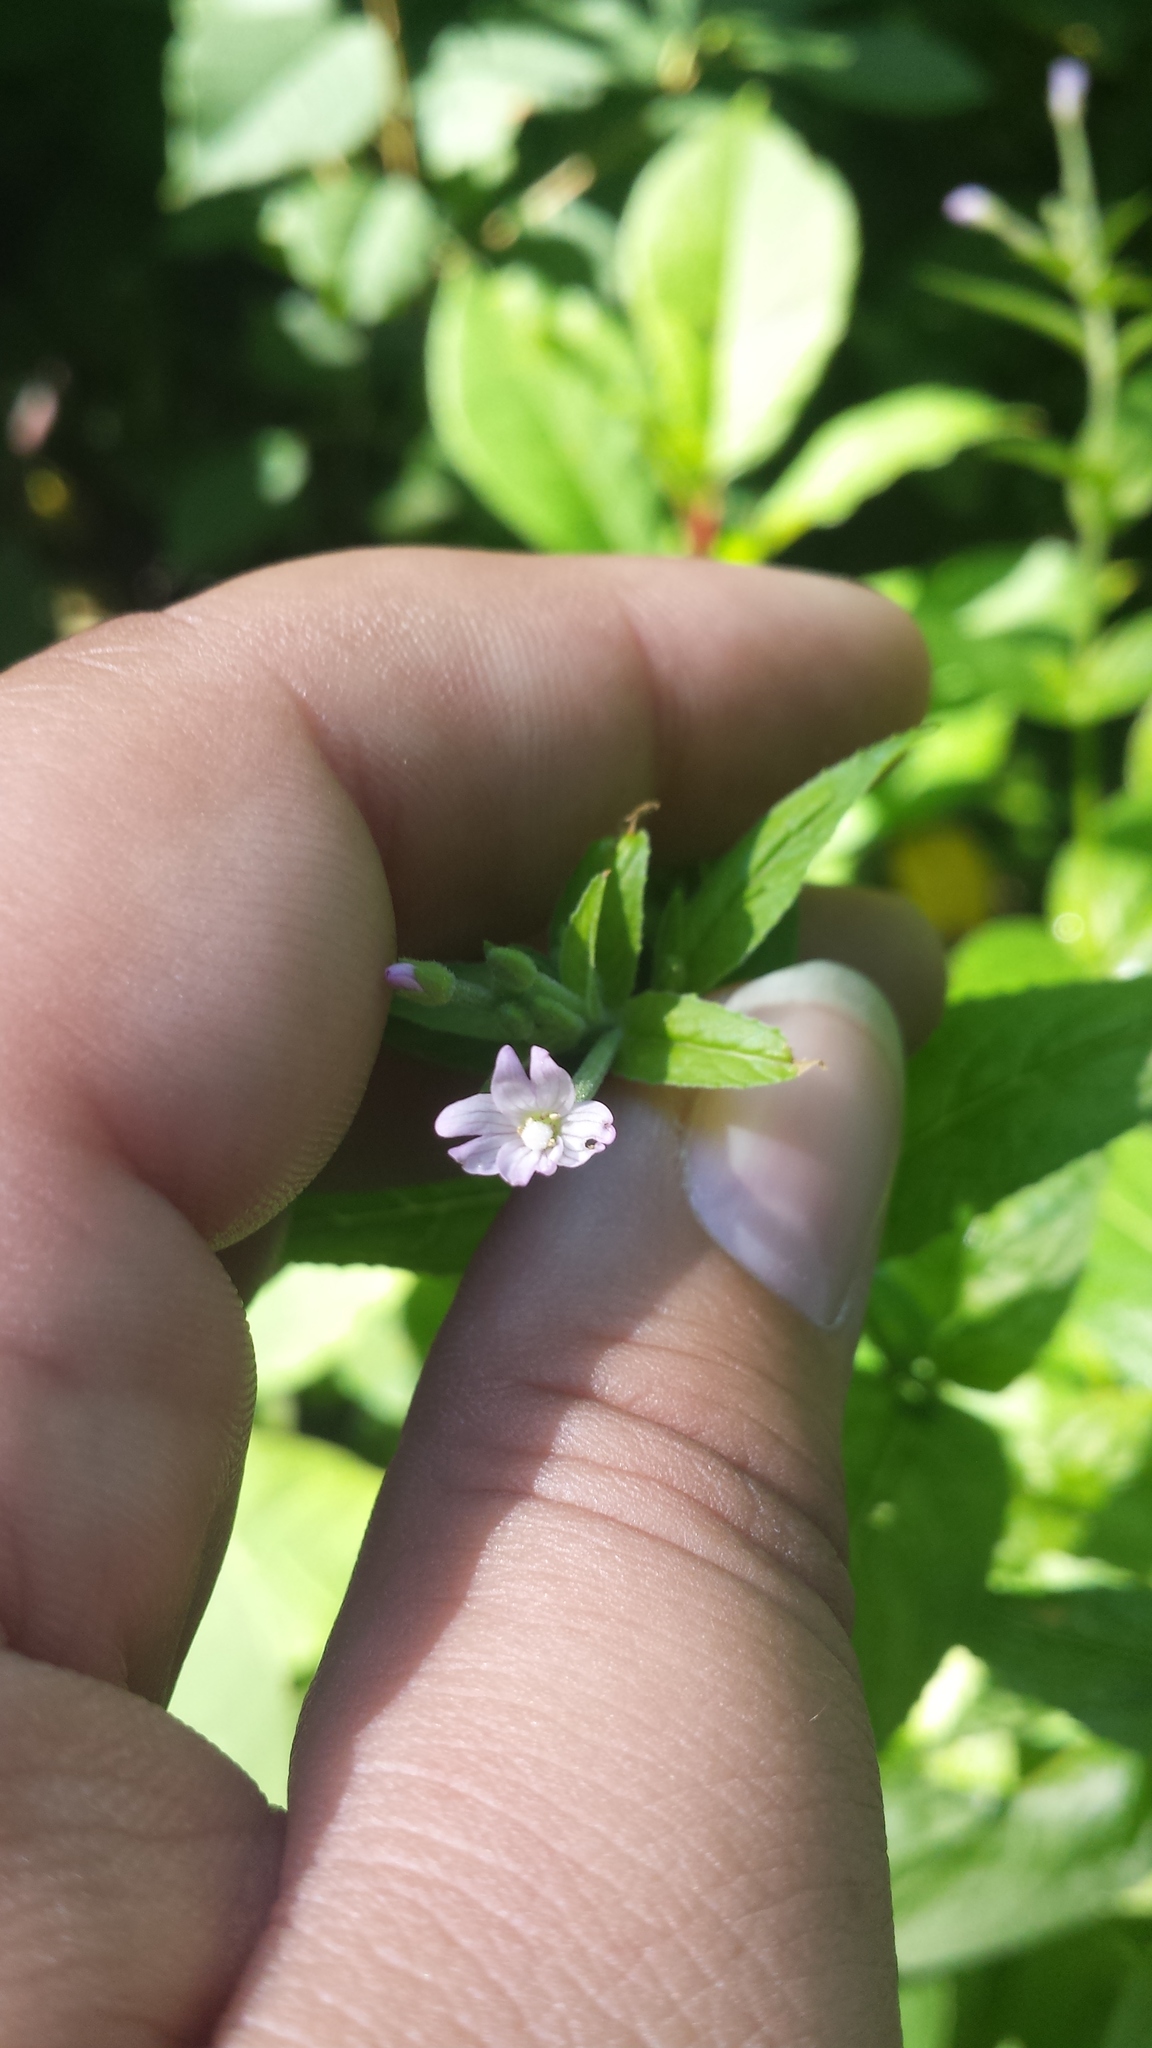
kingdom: Plantae
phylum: Tracheophyta
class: Magnoliopsida
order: Myrtales
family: Onagraceae
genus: Epilobium
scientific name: Epilobium ciliatum
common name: American willowherb
